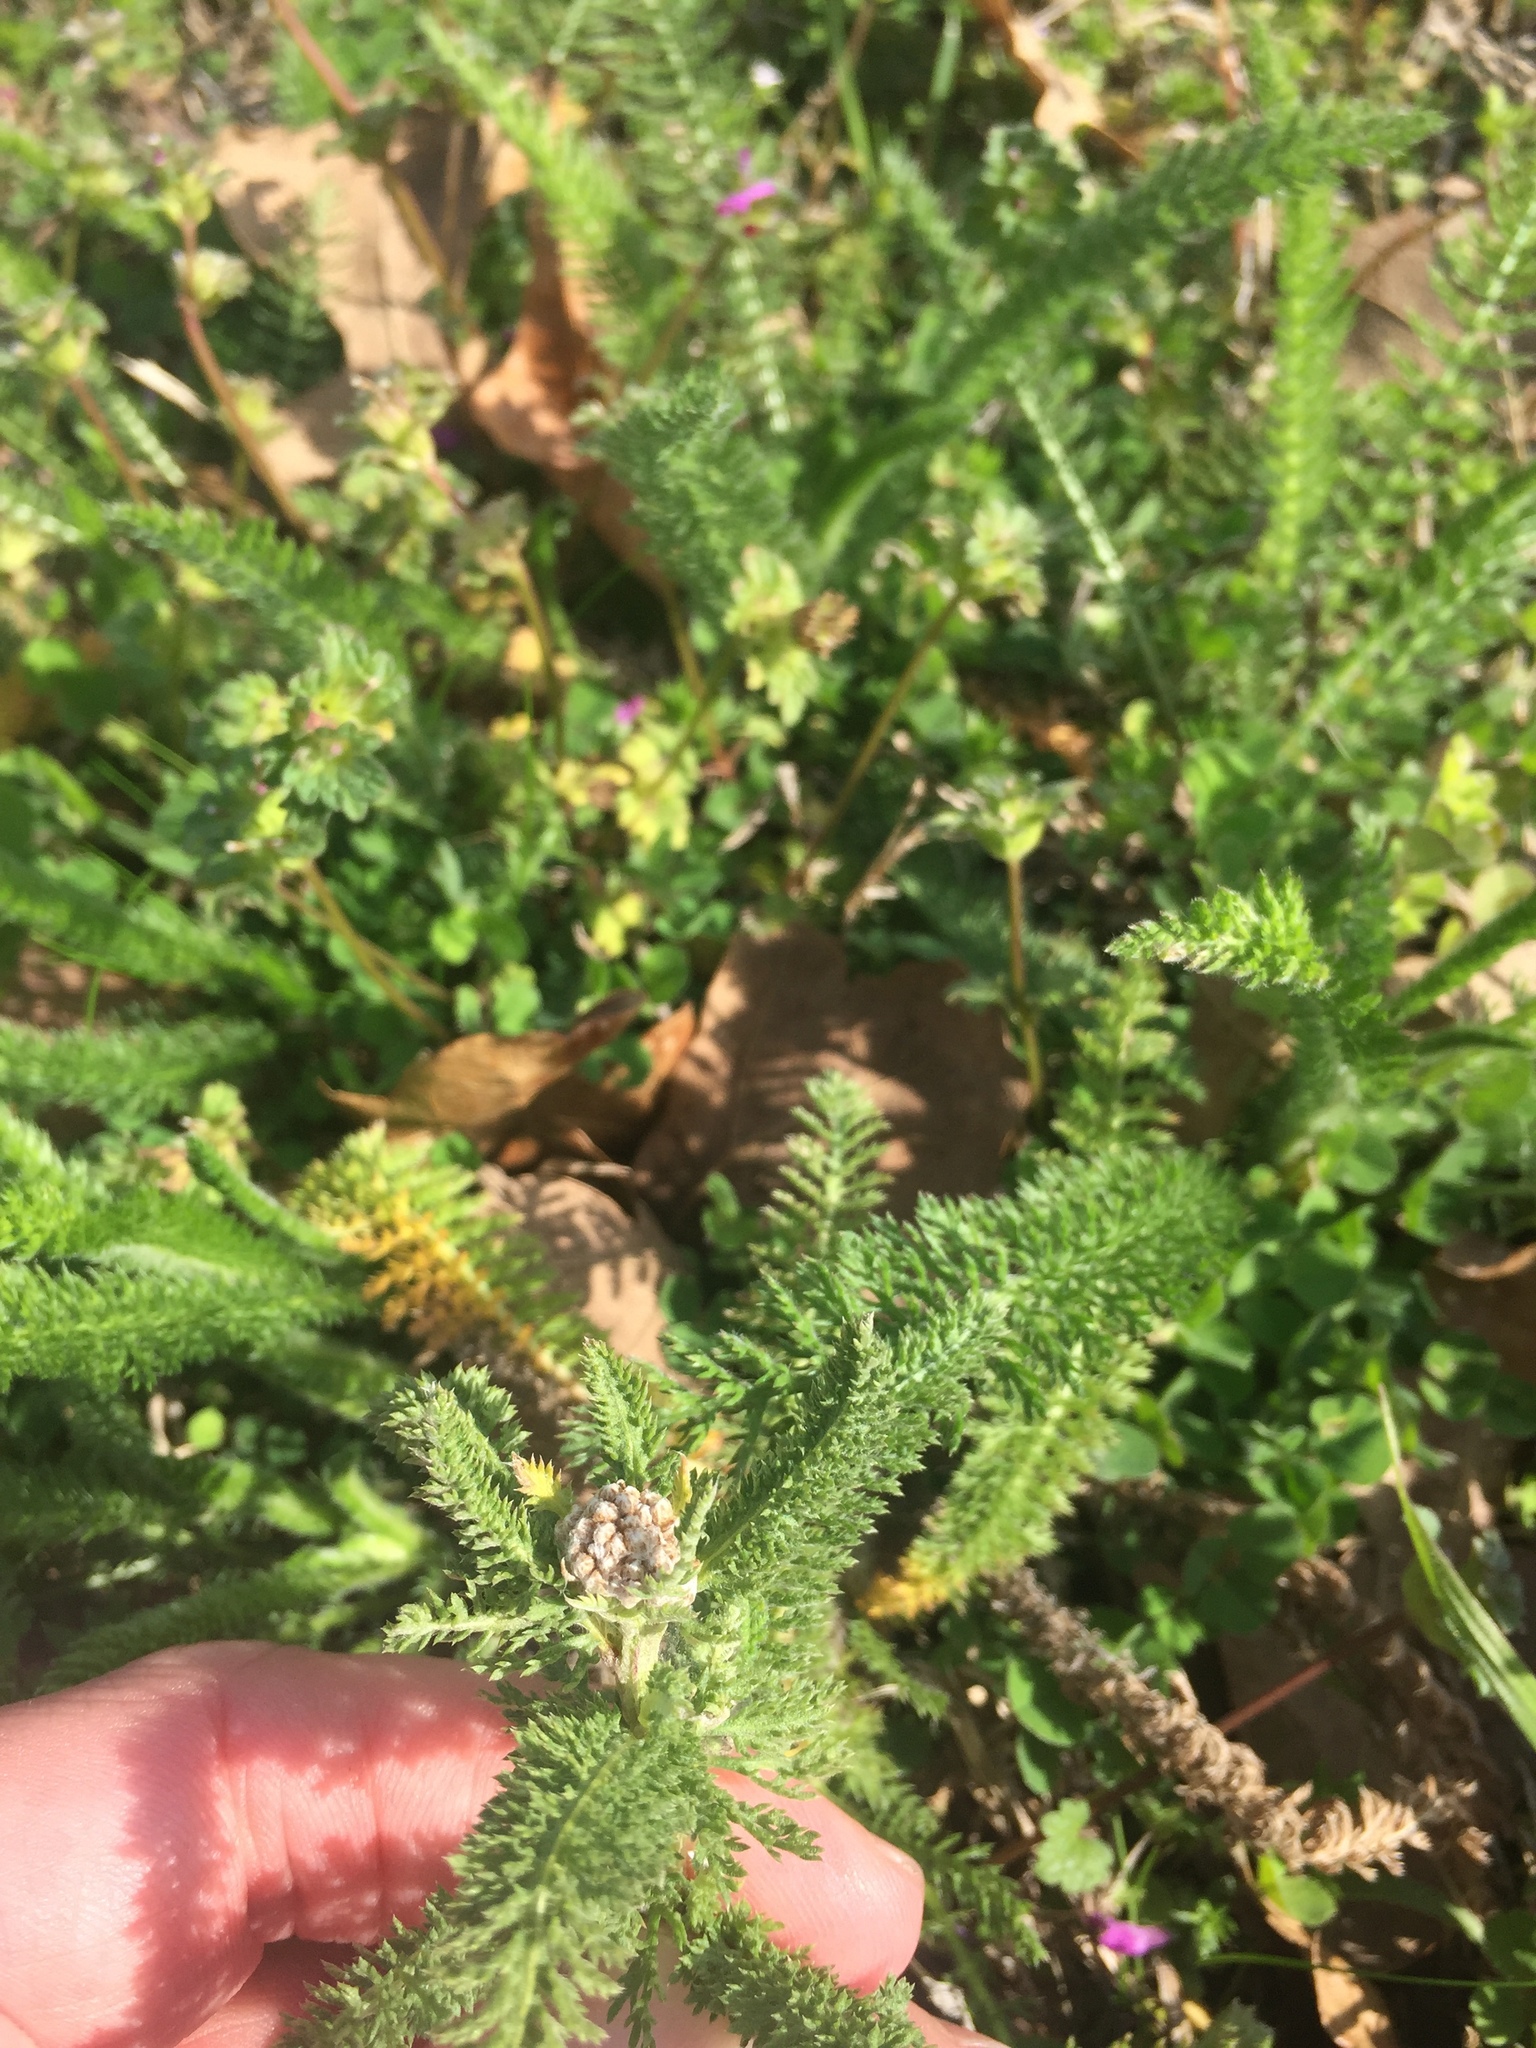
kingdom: Plantae
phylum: Tracheophyta
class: Magnoliopsida
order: Asterales
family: Asteraceae
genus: Achillea
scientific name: Achillea millefolium
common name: Yarrow
